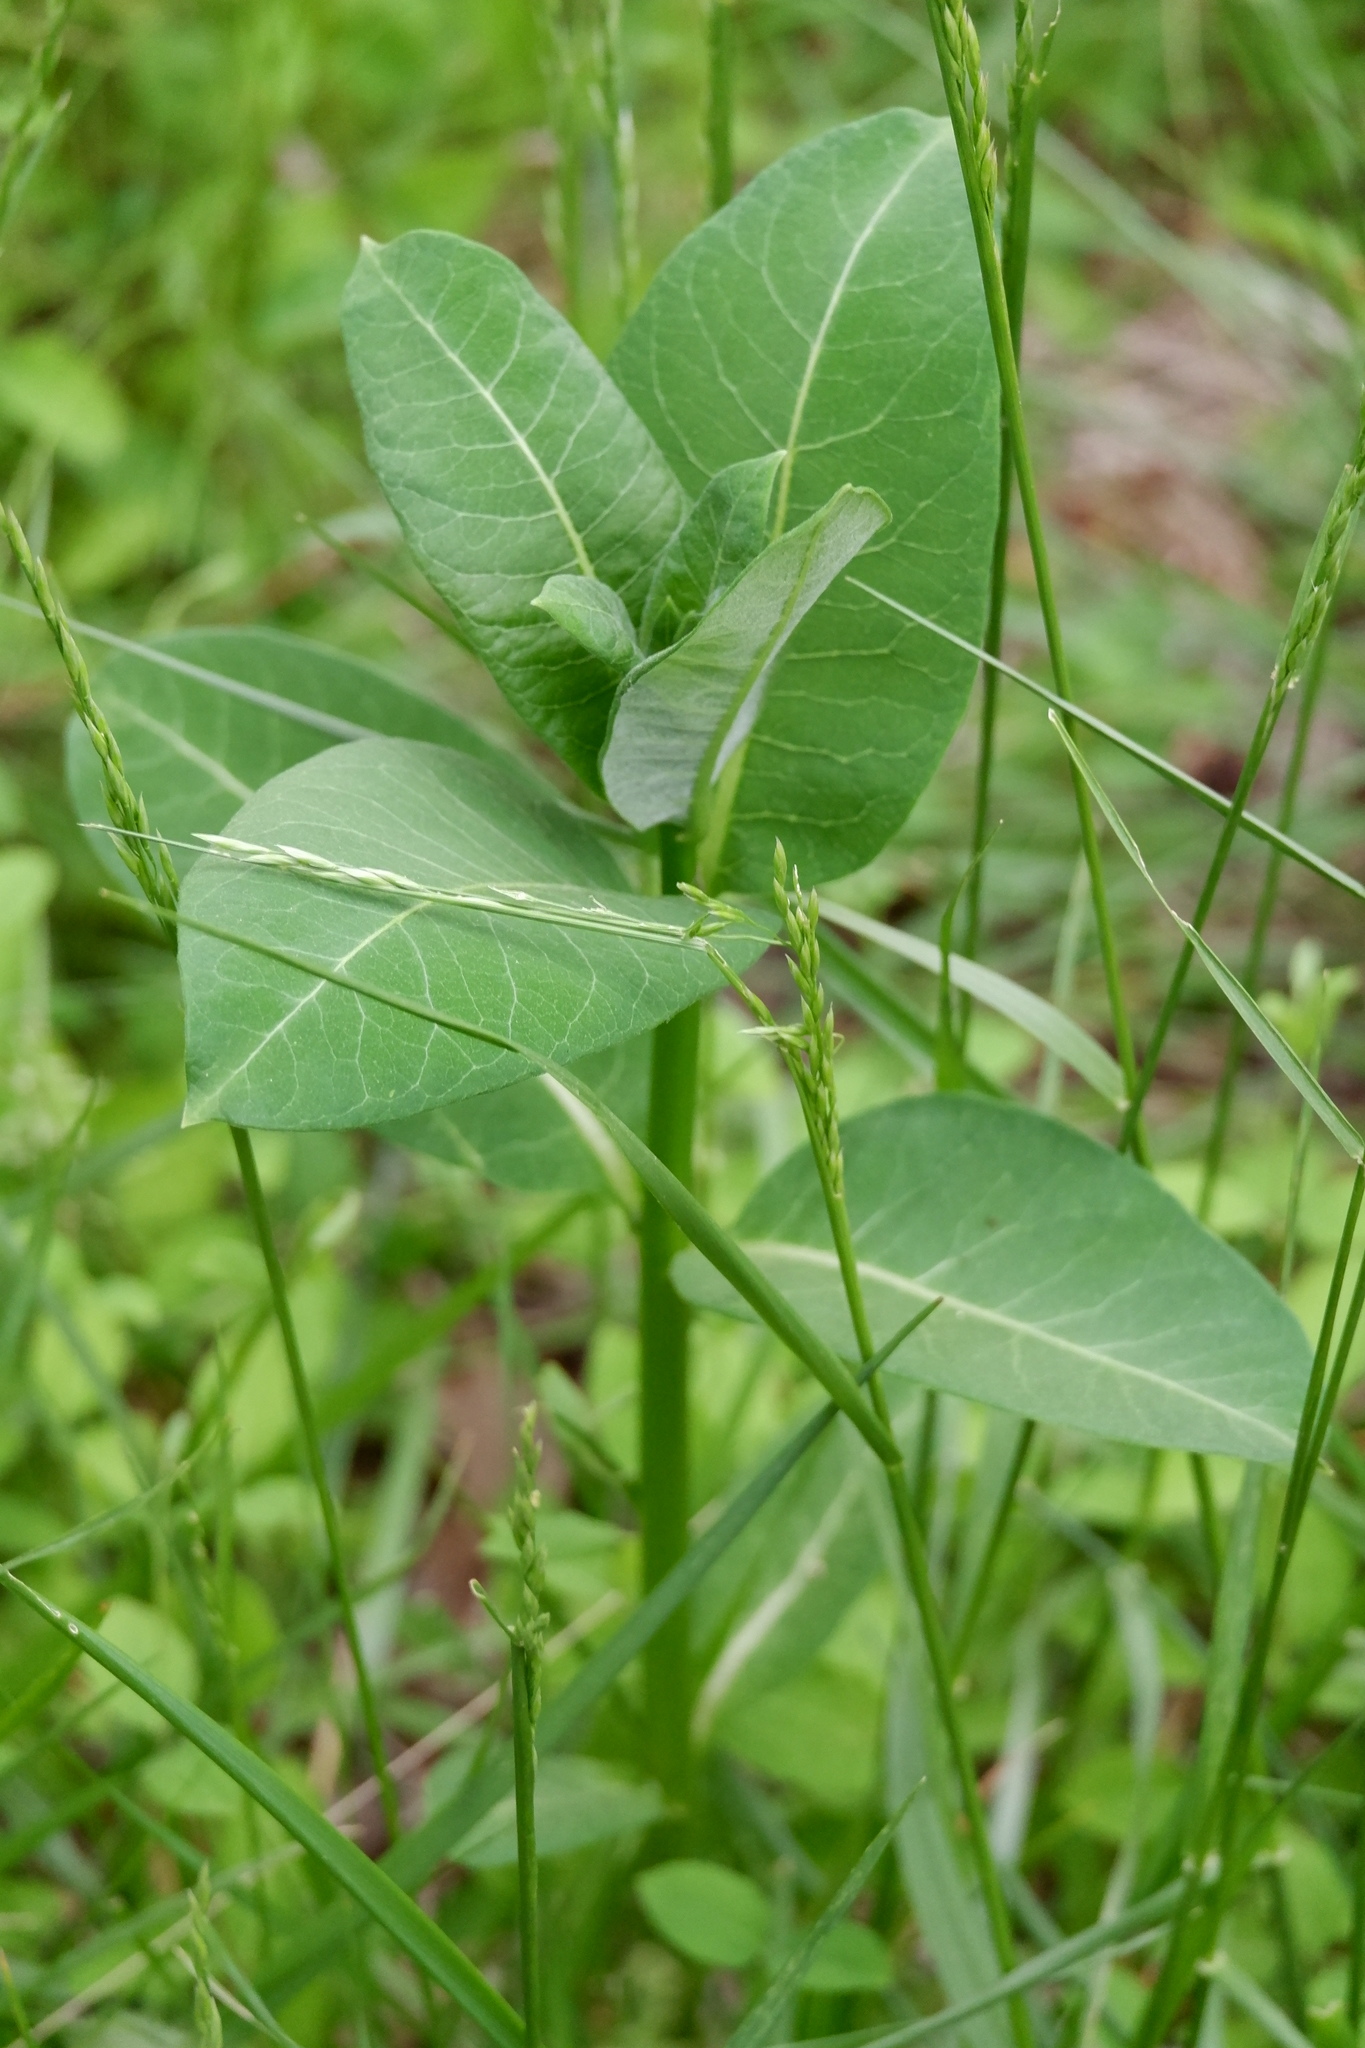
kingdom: Plantae
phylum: Tracheophyta
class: Magnoliopsida
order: Gentianales
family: Apocynaceae
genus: Asclepias
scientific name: Asclepias syriaca
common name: Common milkweed
